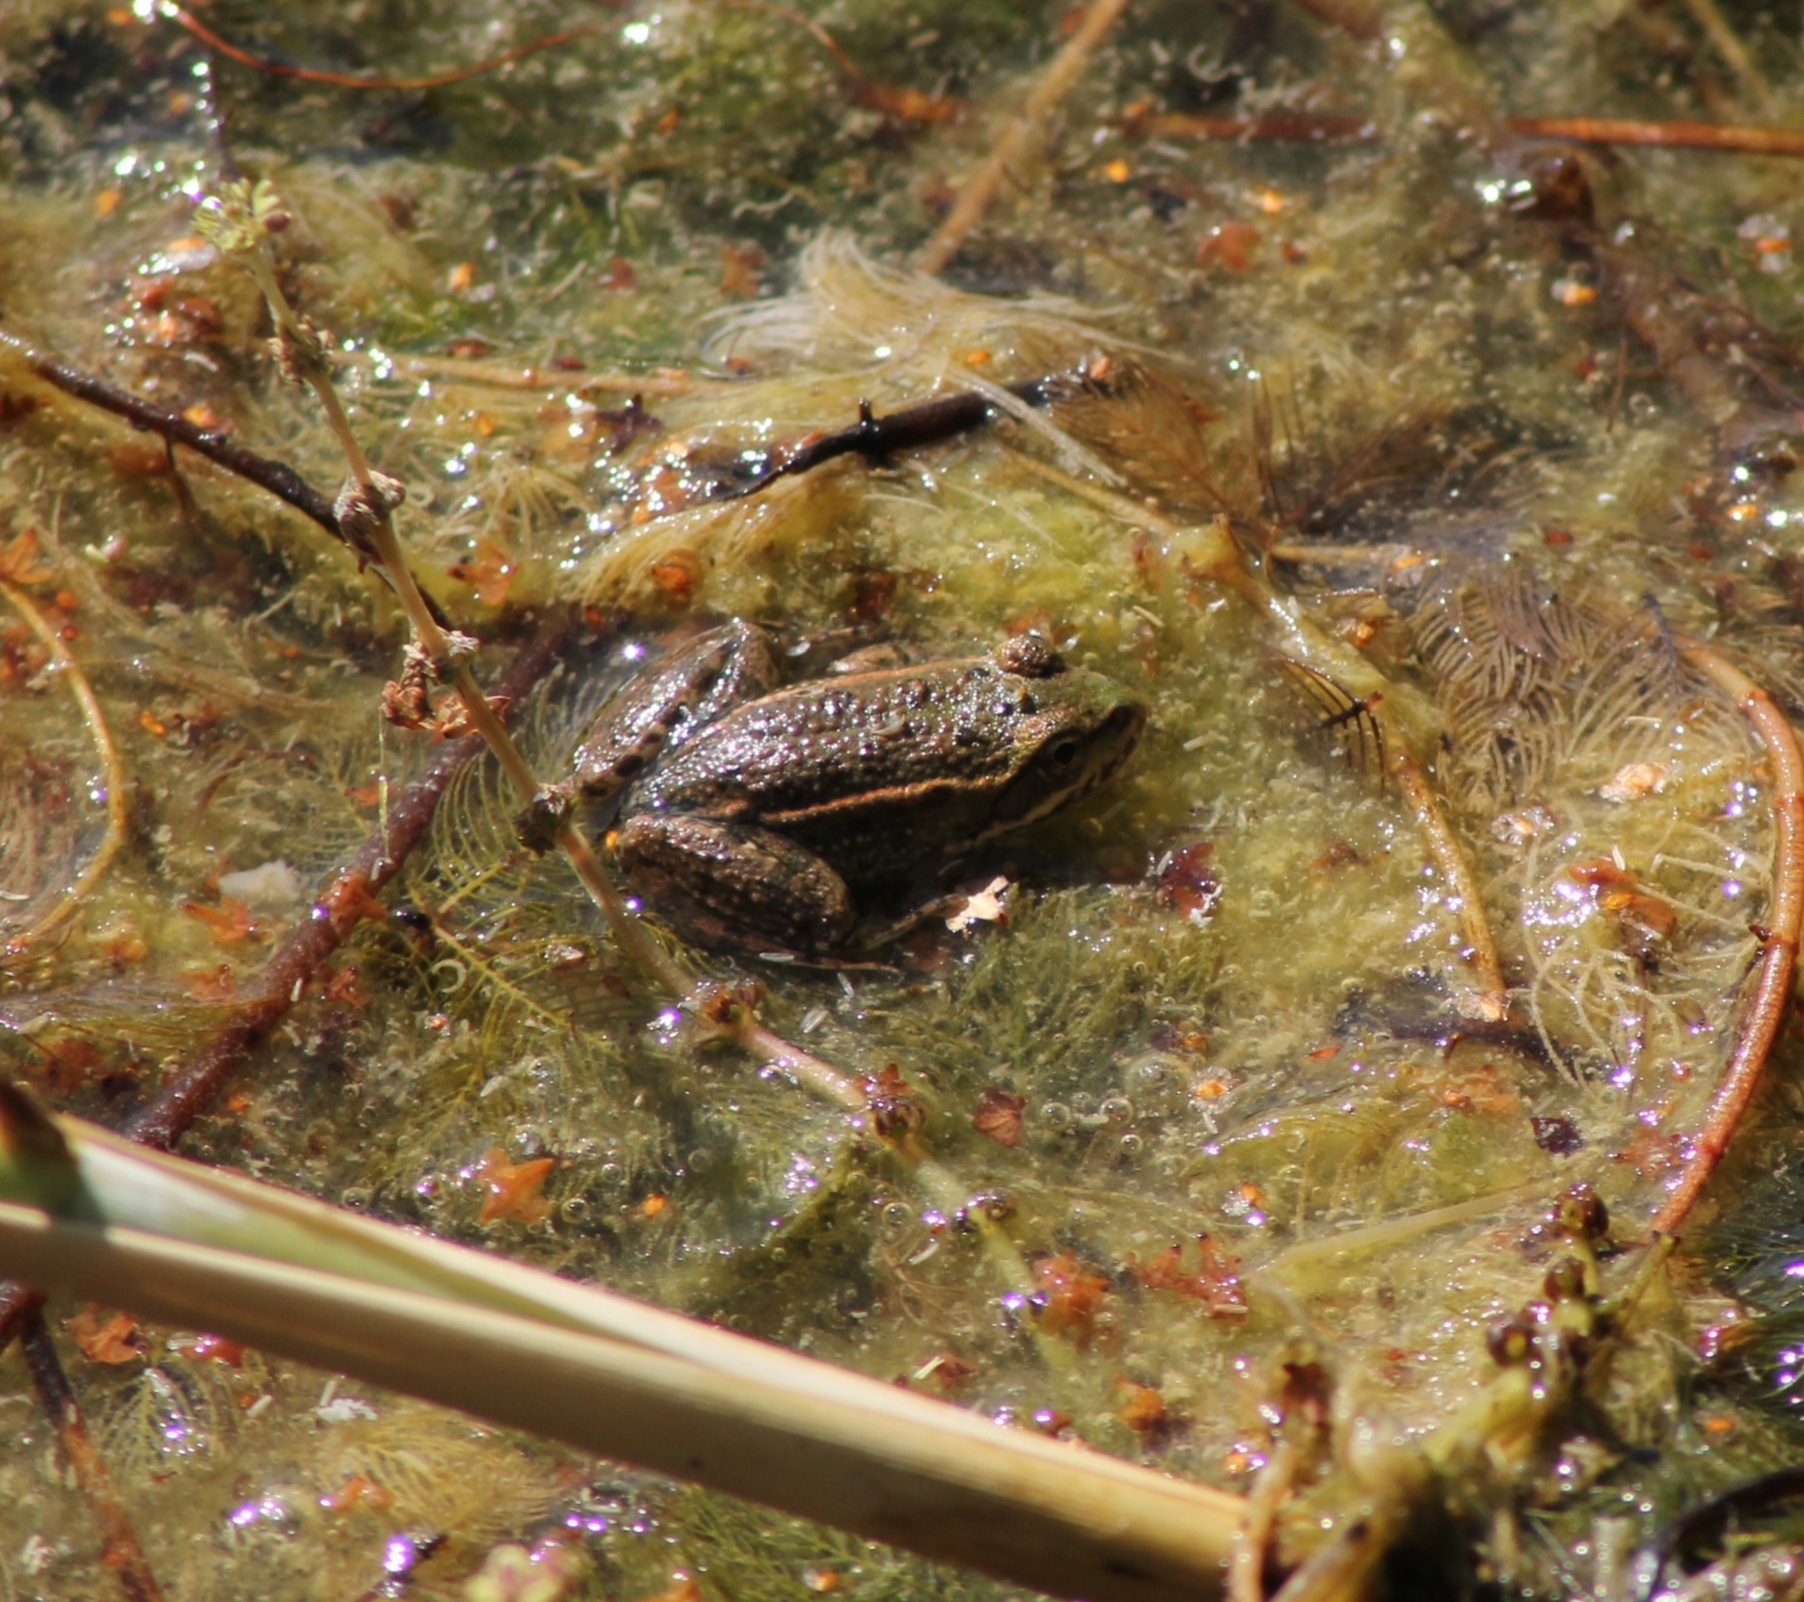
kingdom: Animalia
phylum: Chordata
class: Amphibia
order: Anura
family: Ranidae
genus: Pelophylax
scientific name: Pelophylax
